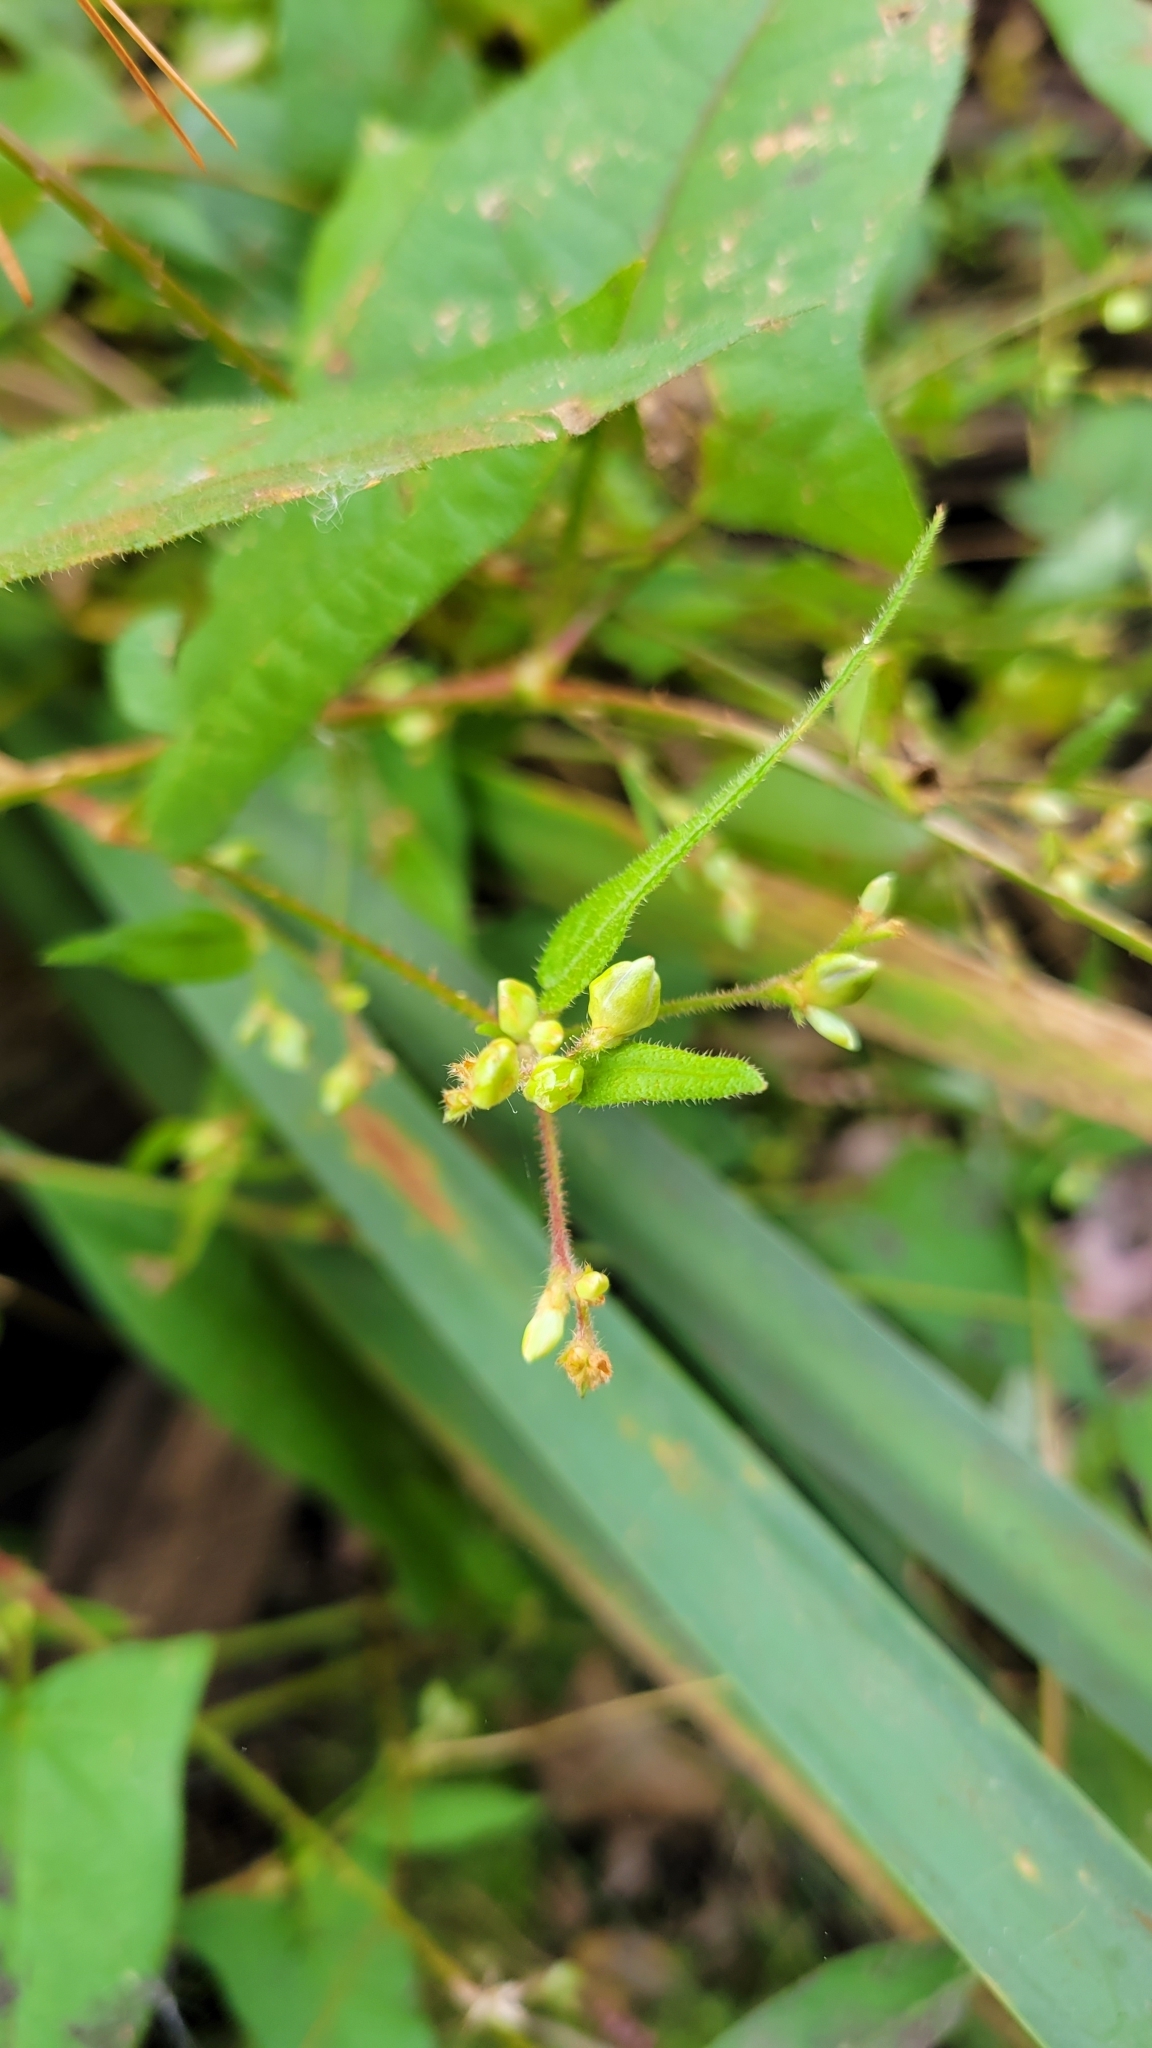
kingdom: Plantae
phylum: Tracheophyta
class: Magnoliopsida
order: Caryophyllales
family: Polygonaceae
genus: Persicaria
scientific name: Persicaria arifolia
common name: Halberd-leaved tear-thumb
